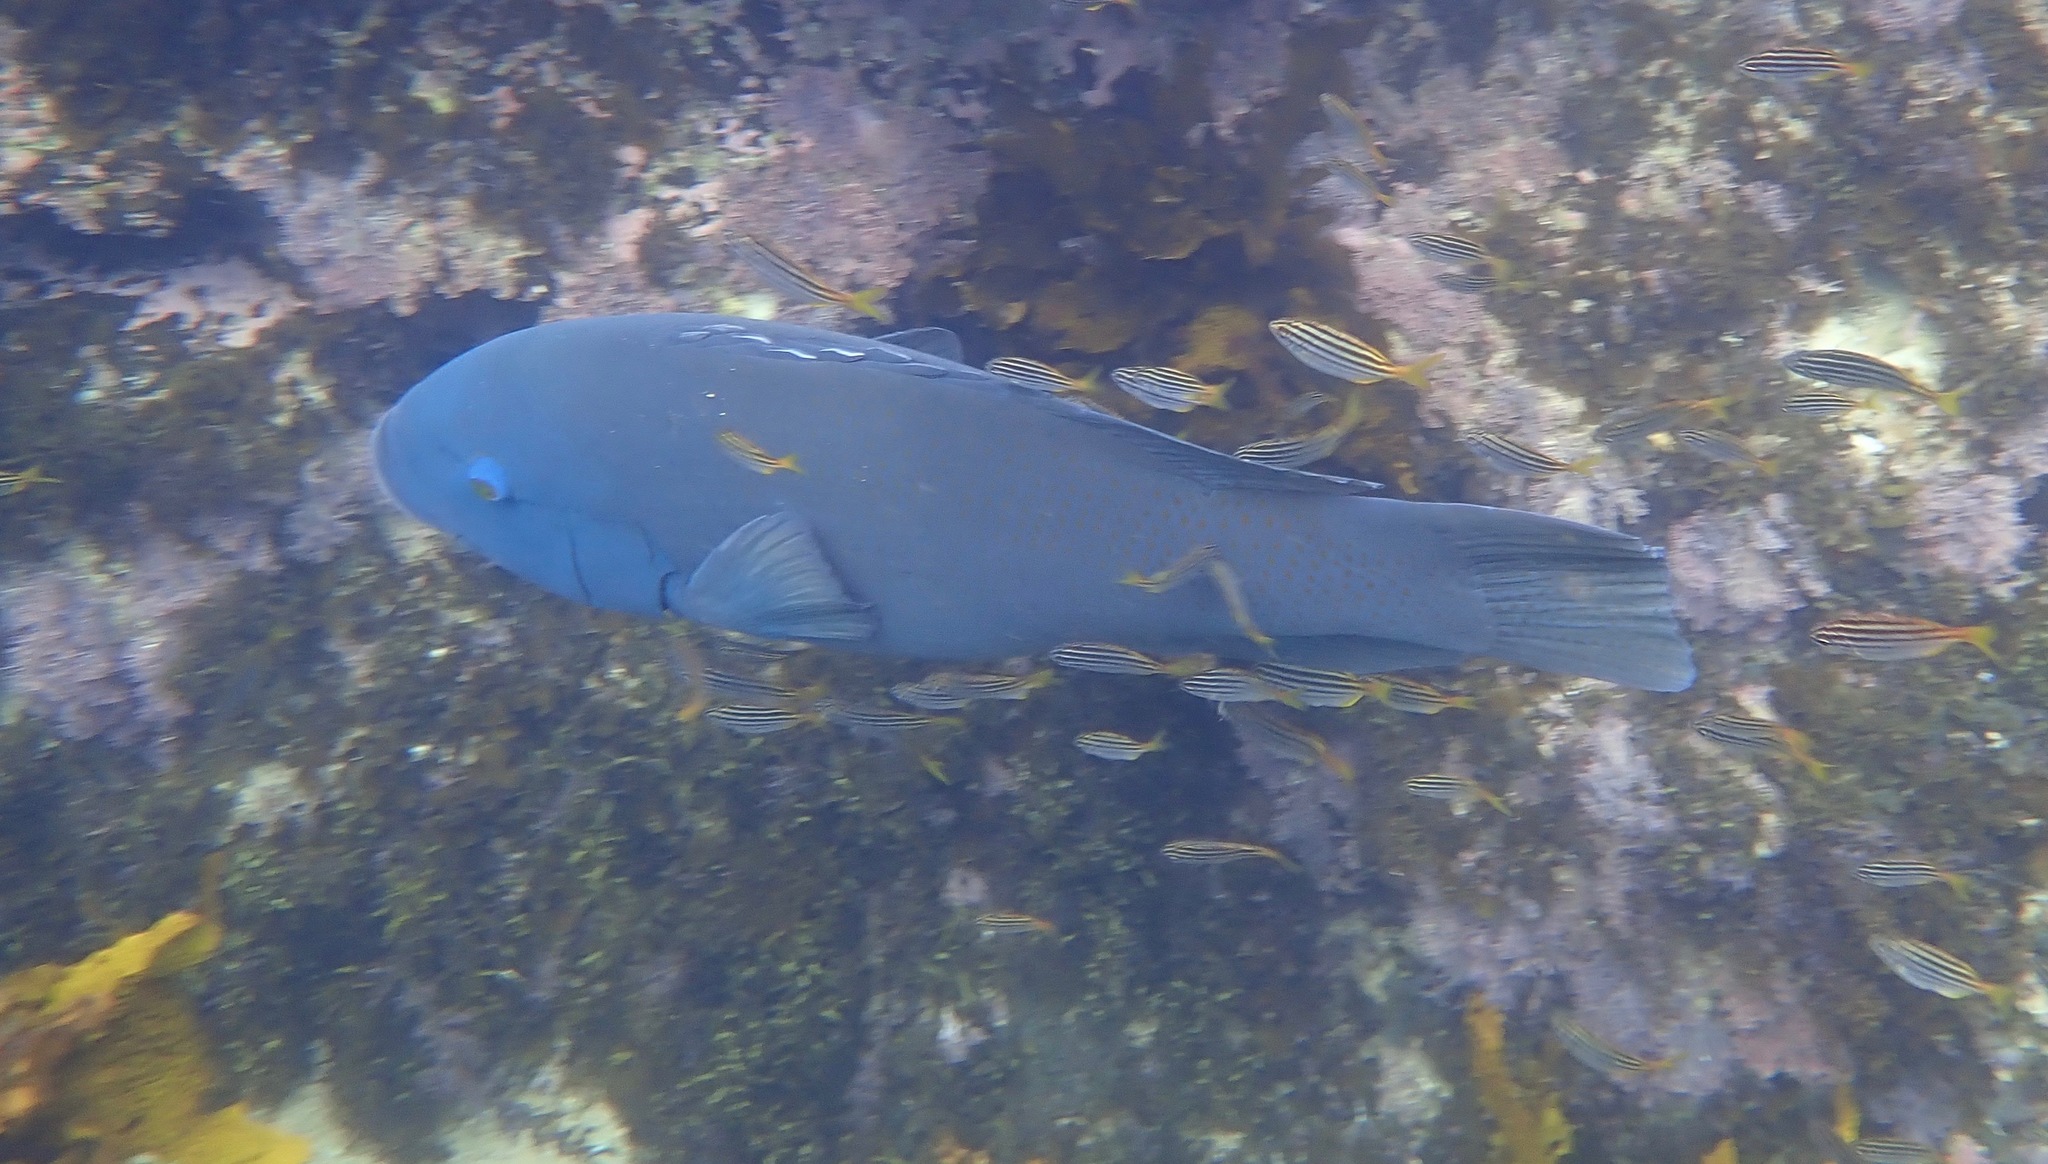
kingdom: Animalia
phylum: Chordata
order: Perciformes
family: Labridae
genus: Achoerodus
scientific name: Achoerodus viridis
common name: Brown groper
